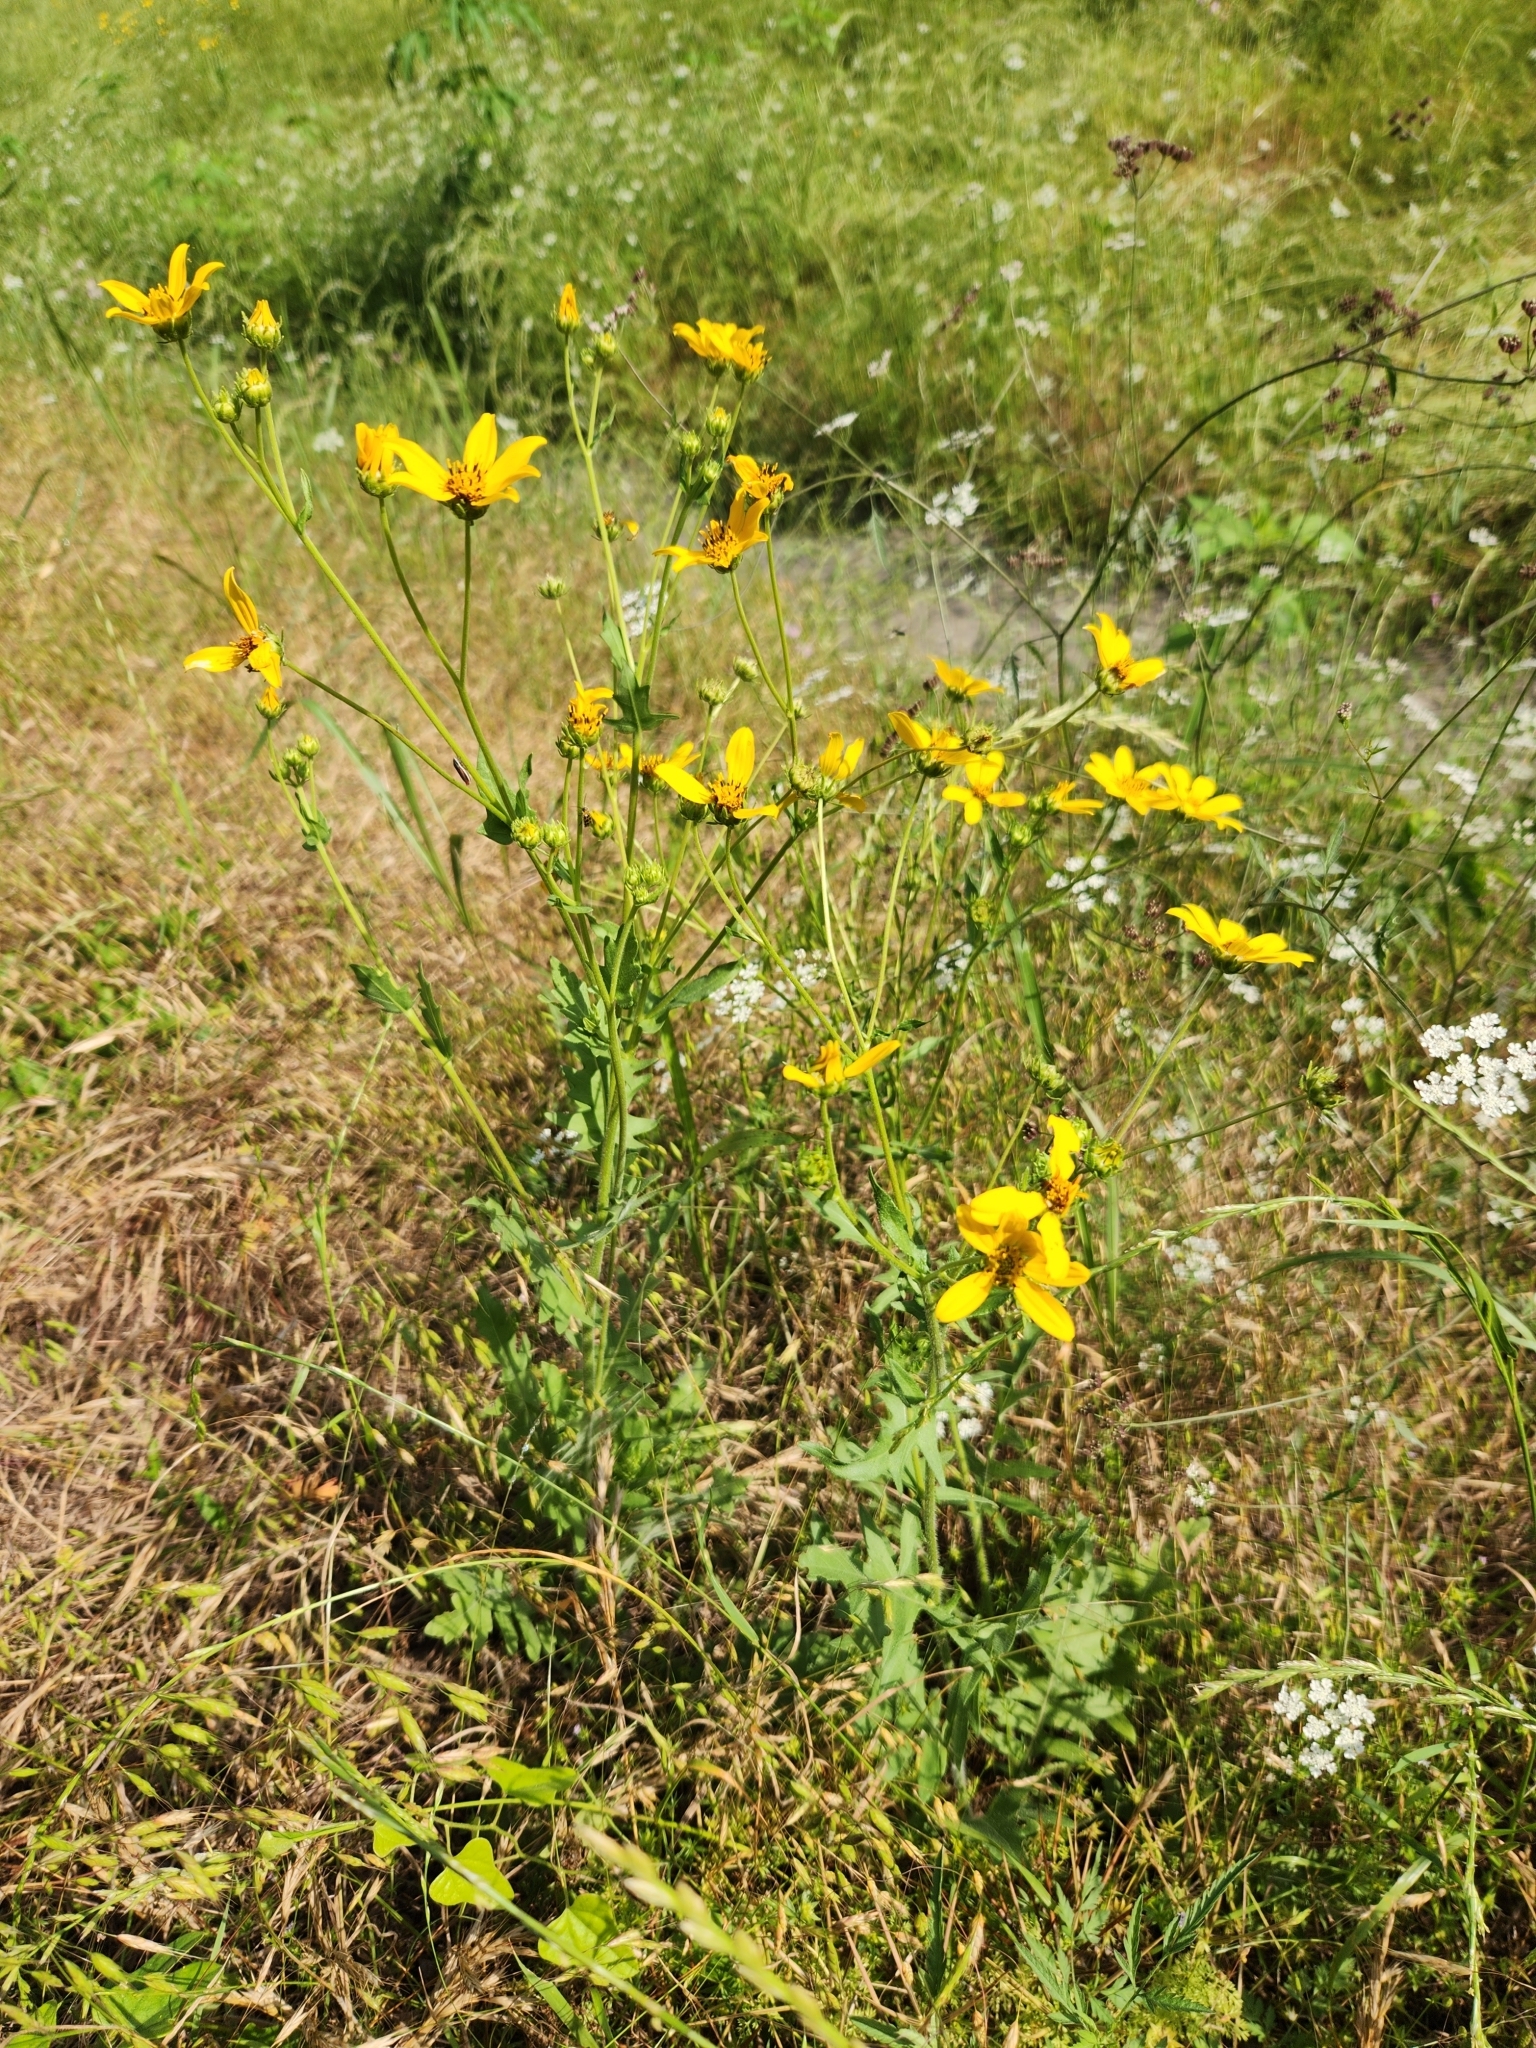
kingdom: Plantae
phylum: Tracheophyta
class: Magnoliopsida
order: Asterales
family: Asteraceae
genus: Engelmannia
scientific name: Engelmannia peristenia
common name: Engelmann's daisy
